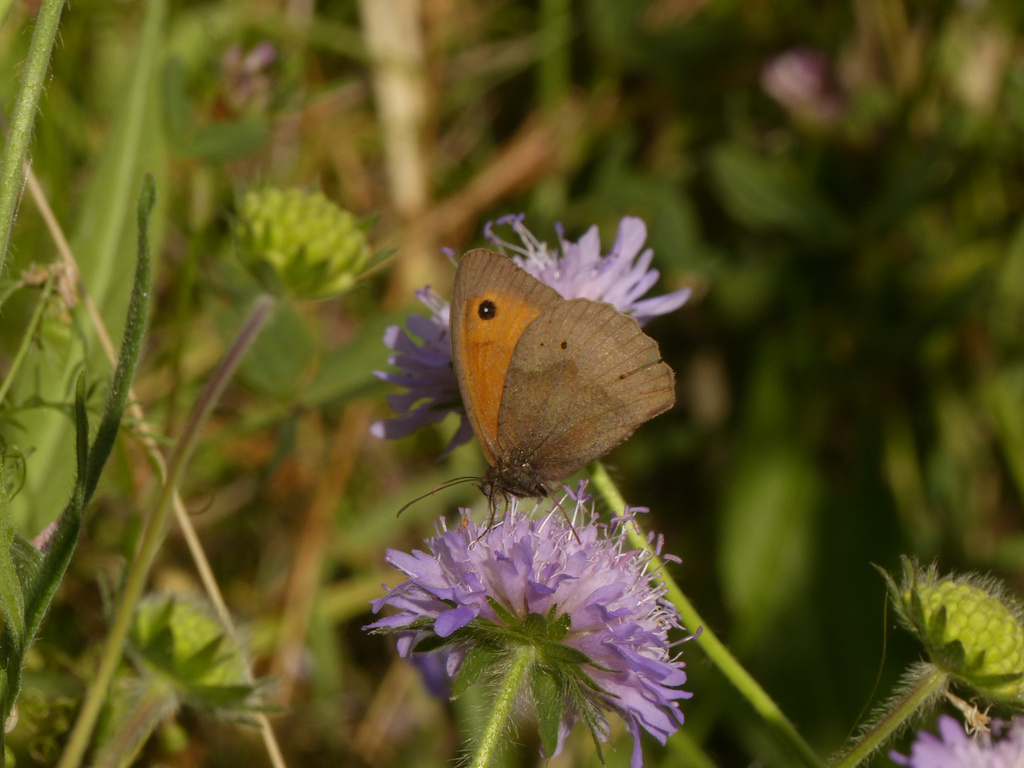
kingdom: Animalia
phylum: Arthropoda
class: Insecta
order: Lepidoptera
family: Nymphalidae
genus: Maniola
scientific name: Maniola jurtina
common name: Meadow brown
